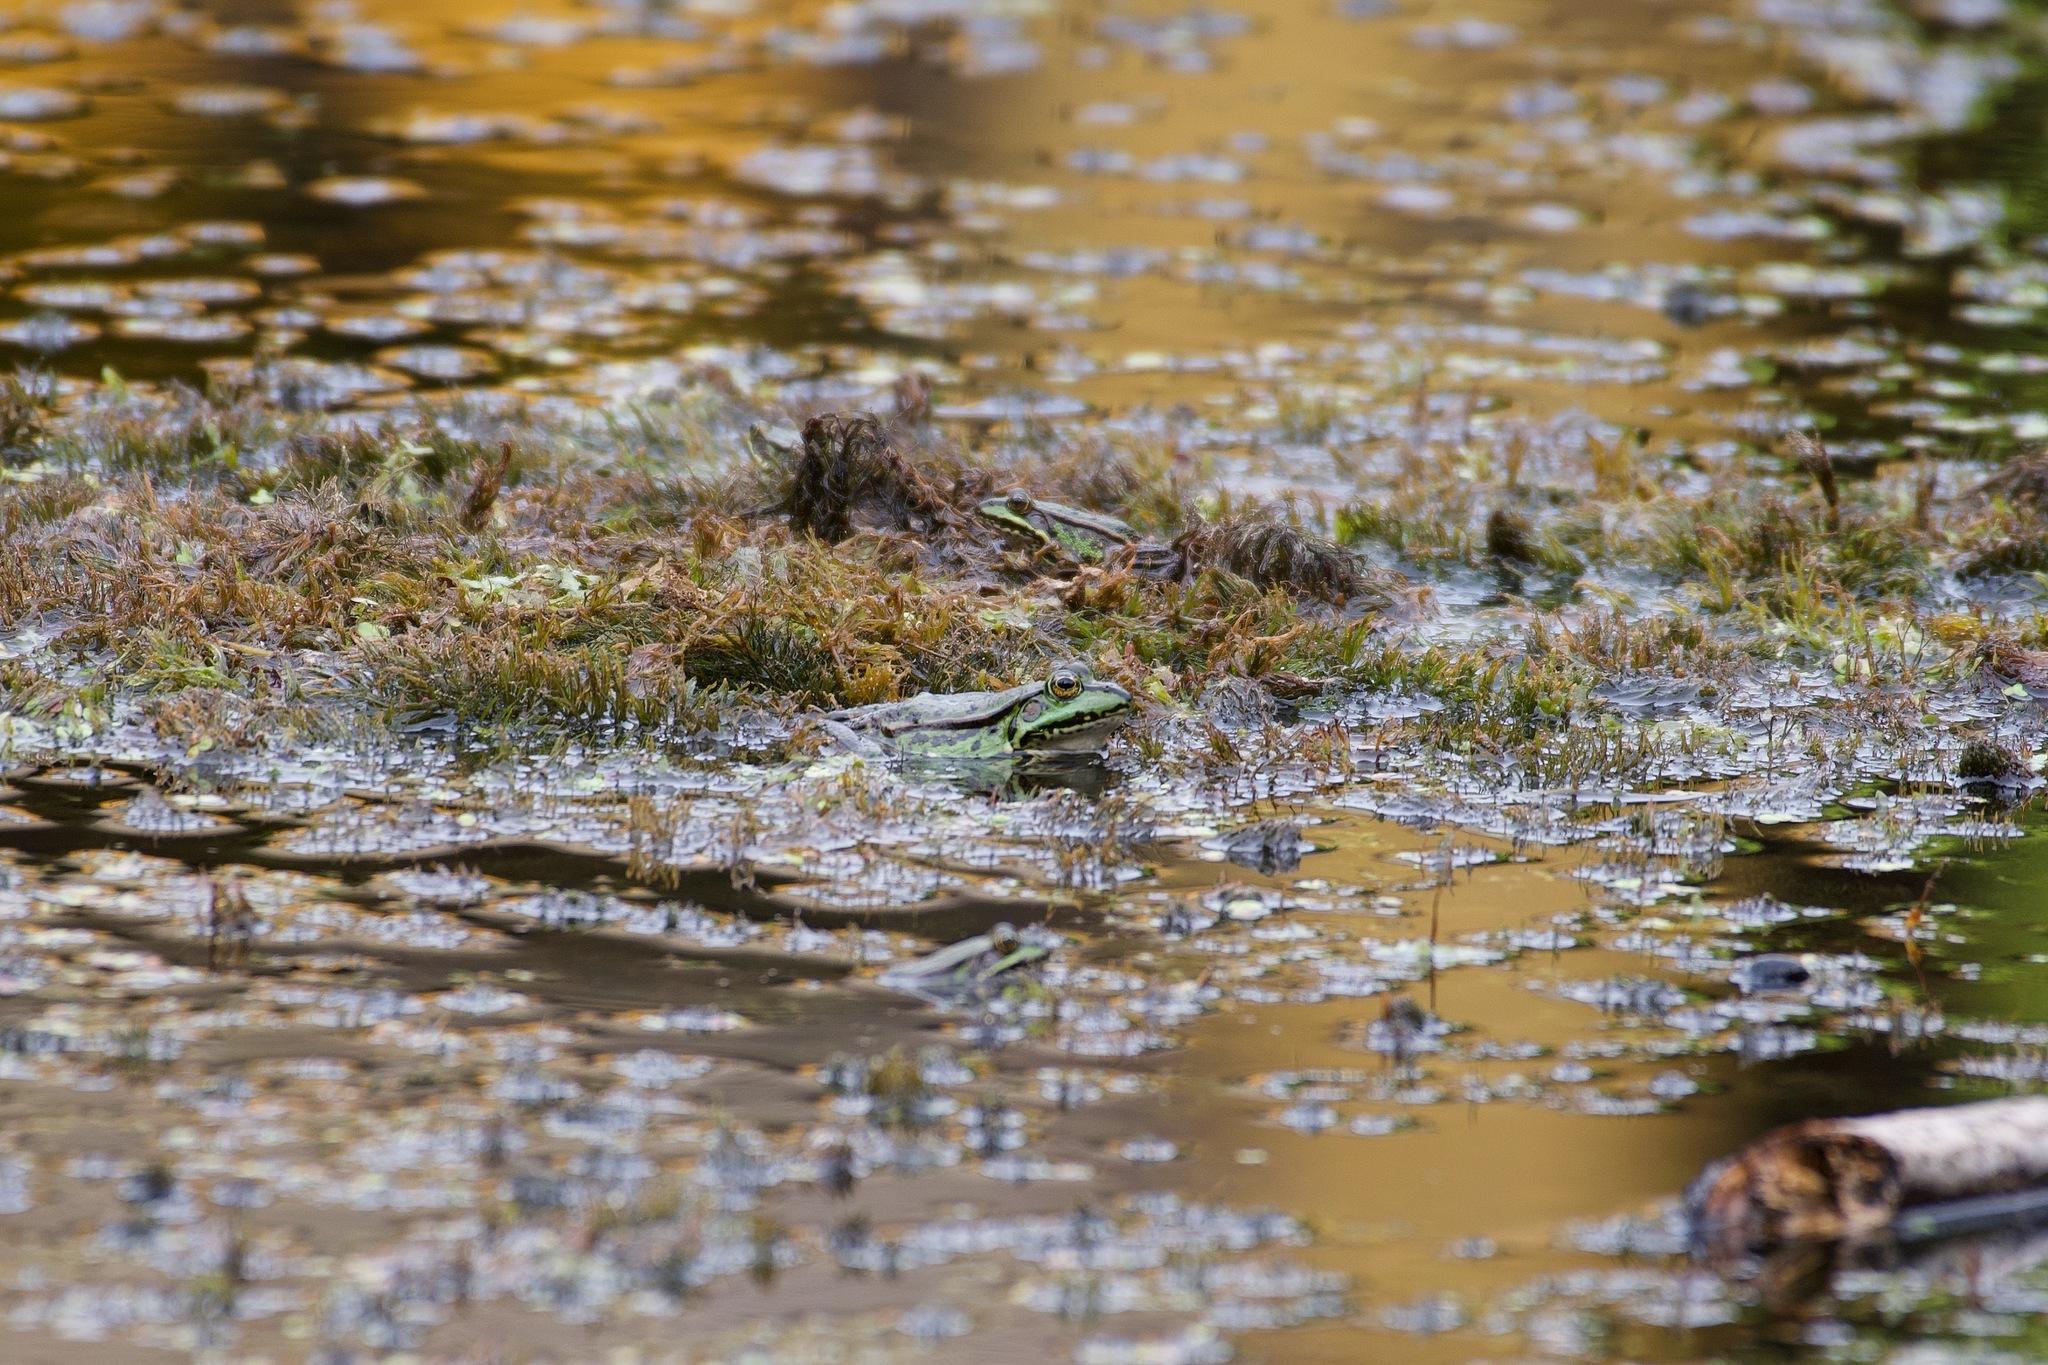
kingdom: Animalia
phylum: Chordata
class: Amphibia
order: Anura
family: Ranidae
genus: Pelophylax
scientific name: Pelophylax lessonae
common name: Pool frog
